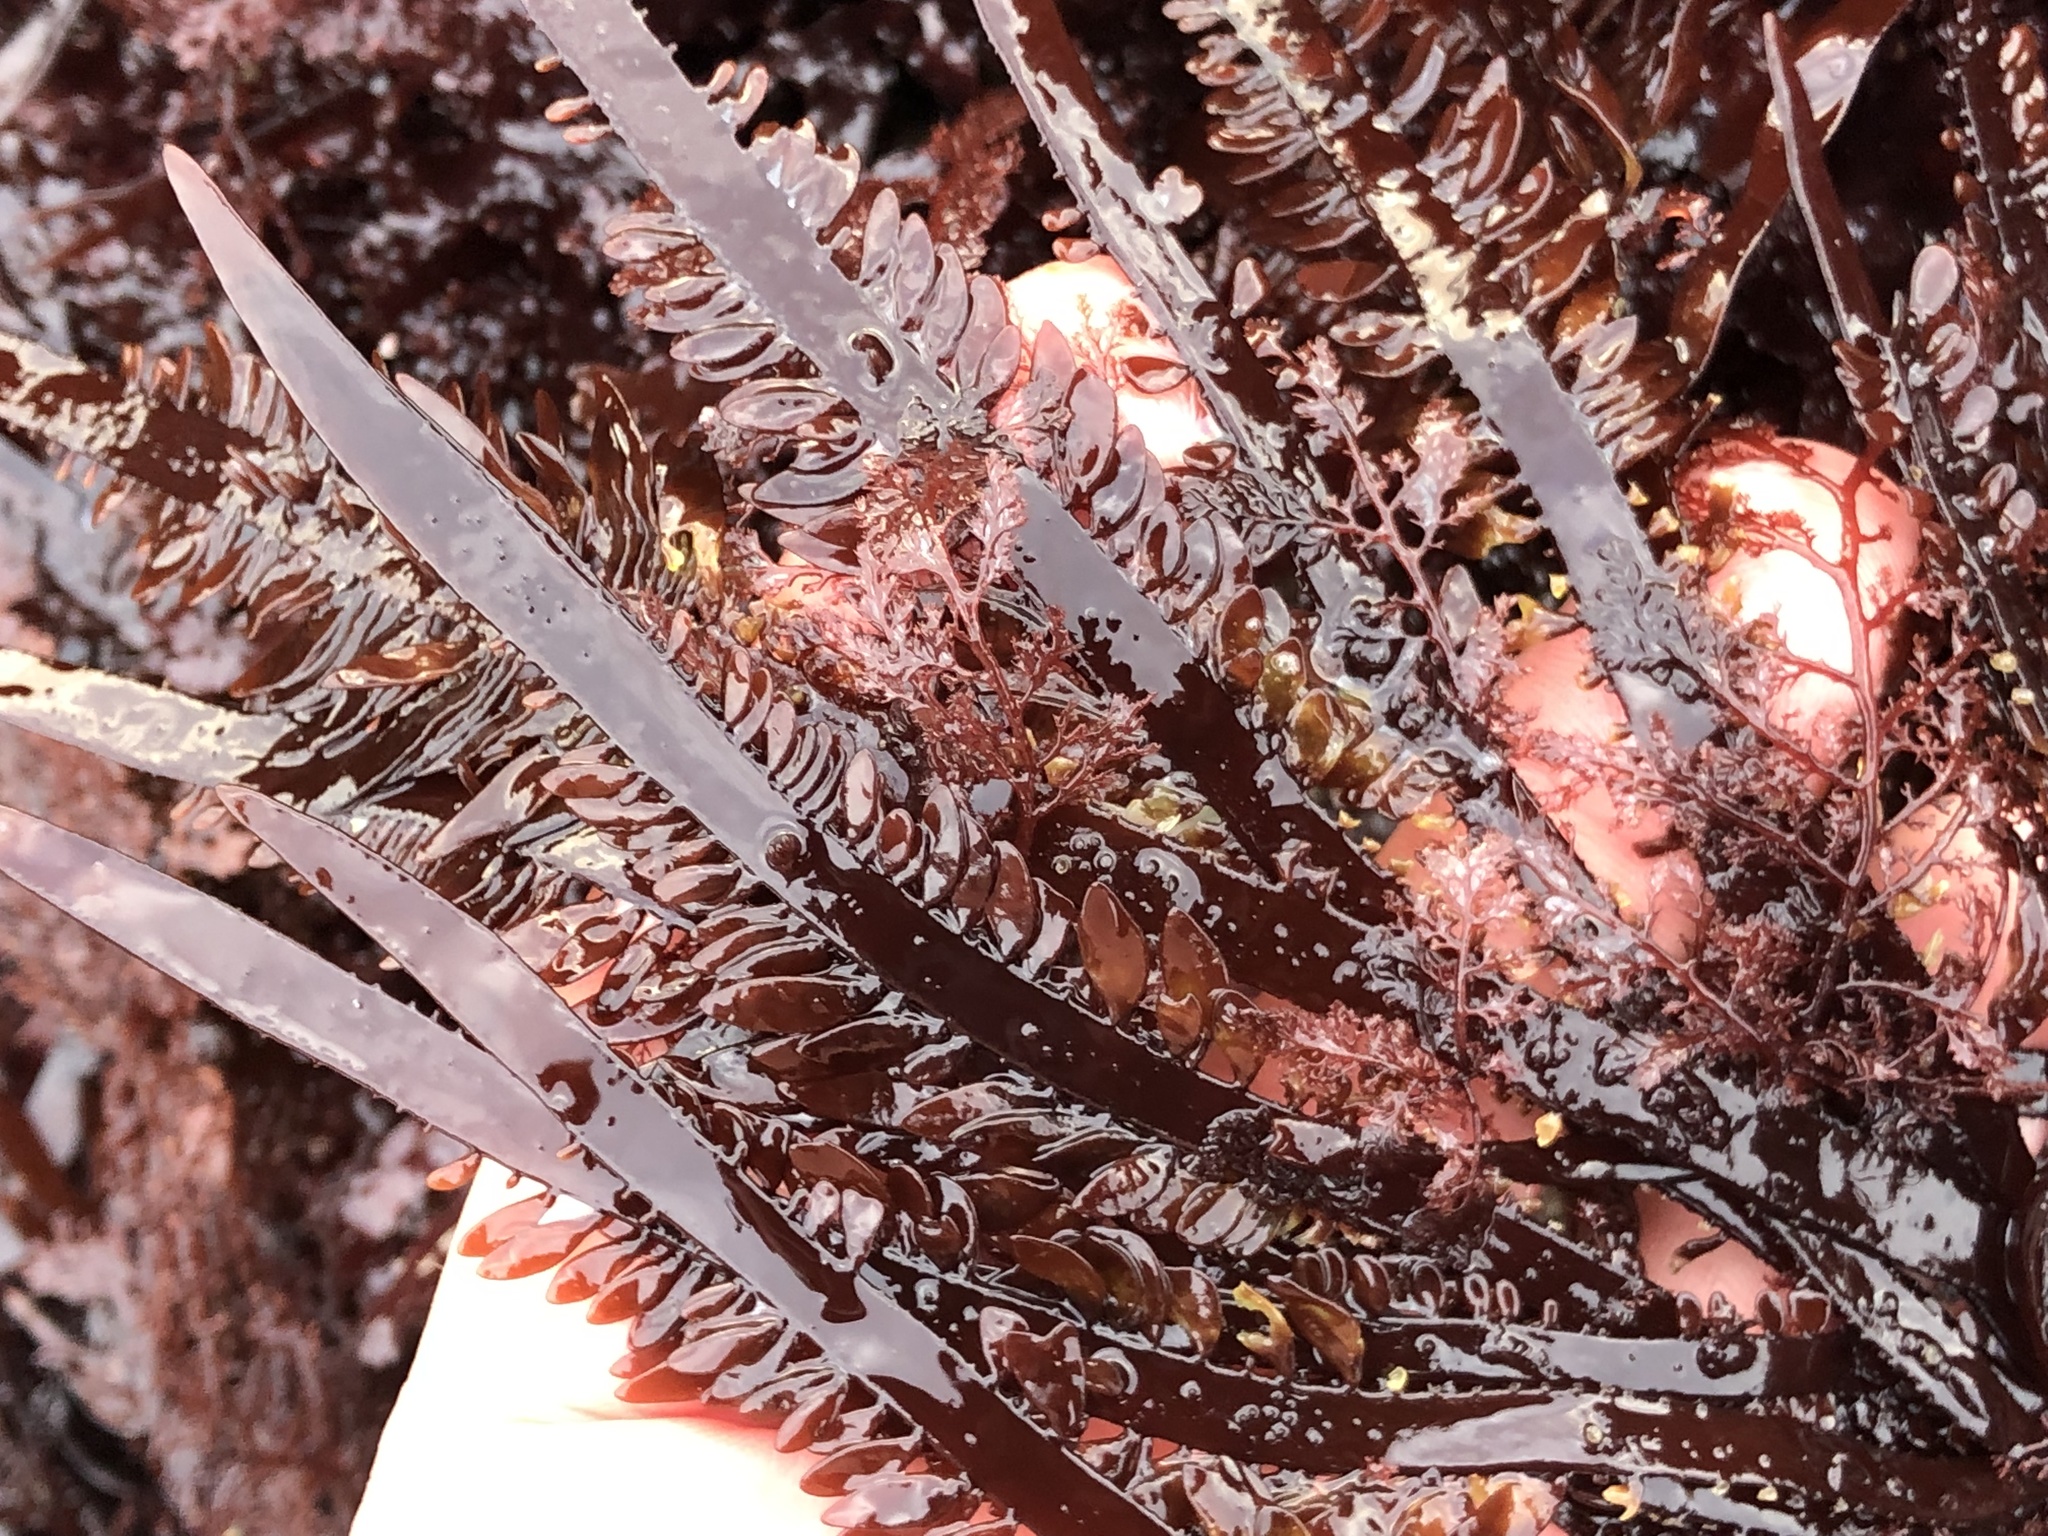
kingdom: Plantae
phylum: Rhodophyta
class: Florideophyceae
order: Halymeniales
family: Halymeniaceae
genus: Grateloupia
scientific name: Grateloupia Prionitis lanceolata
